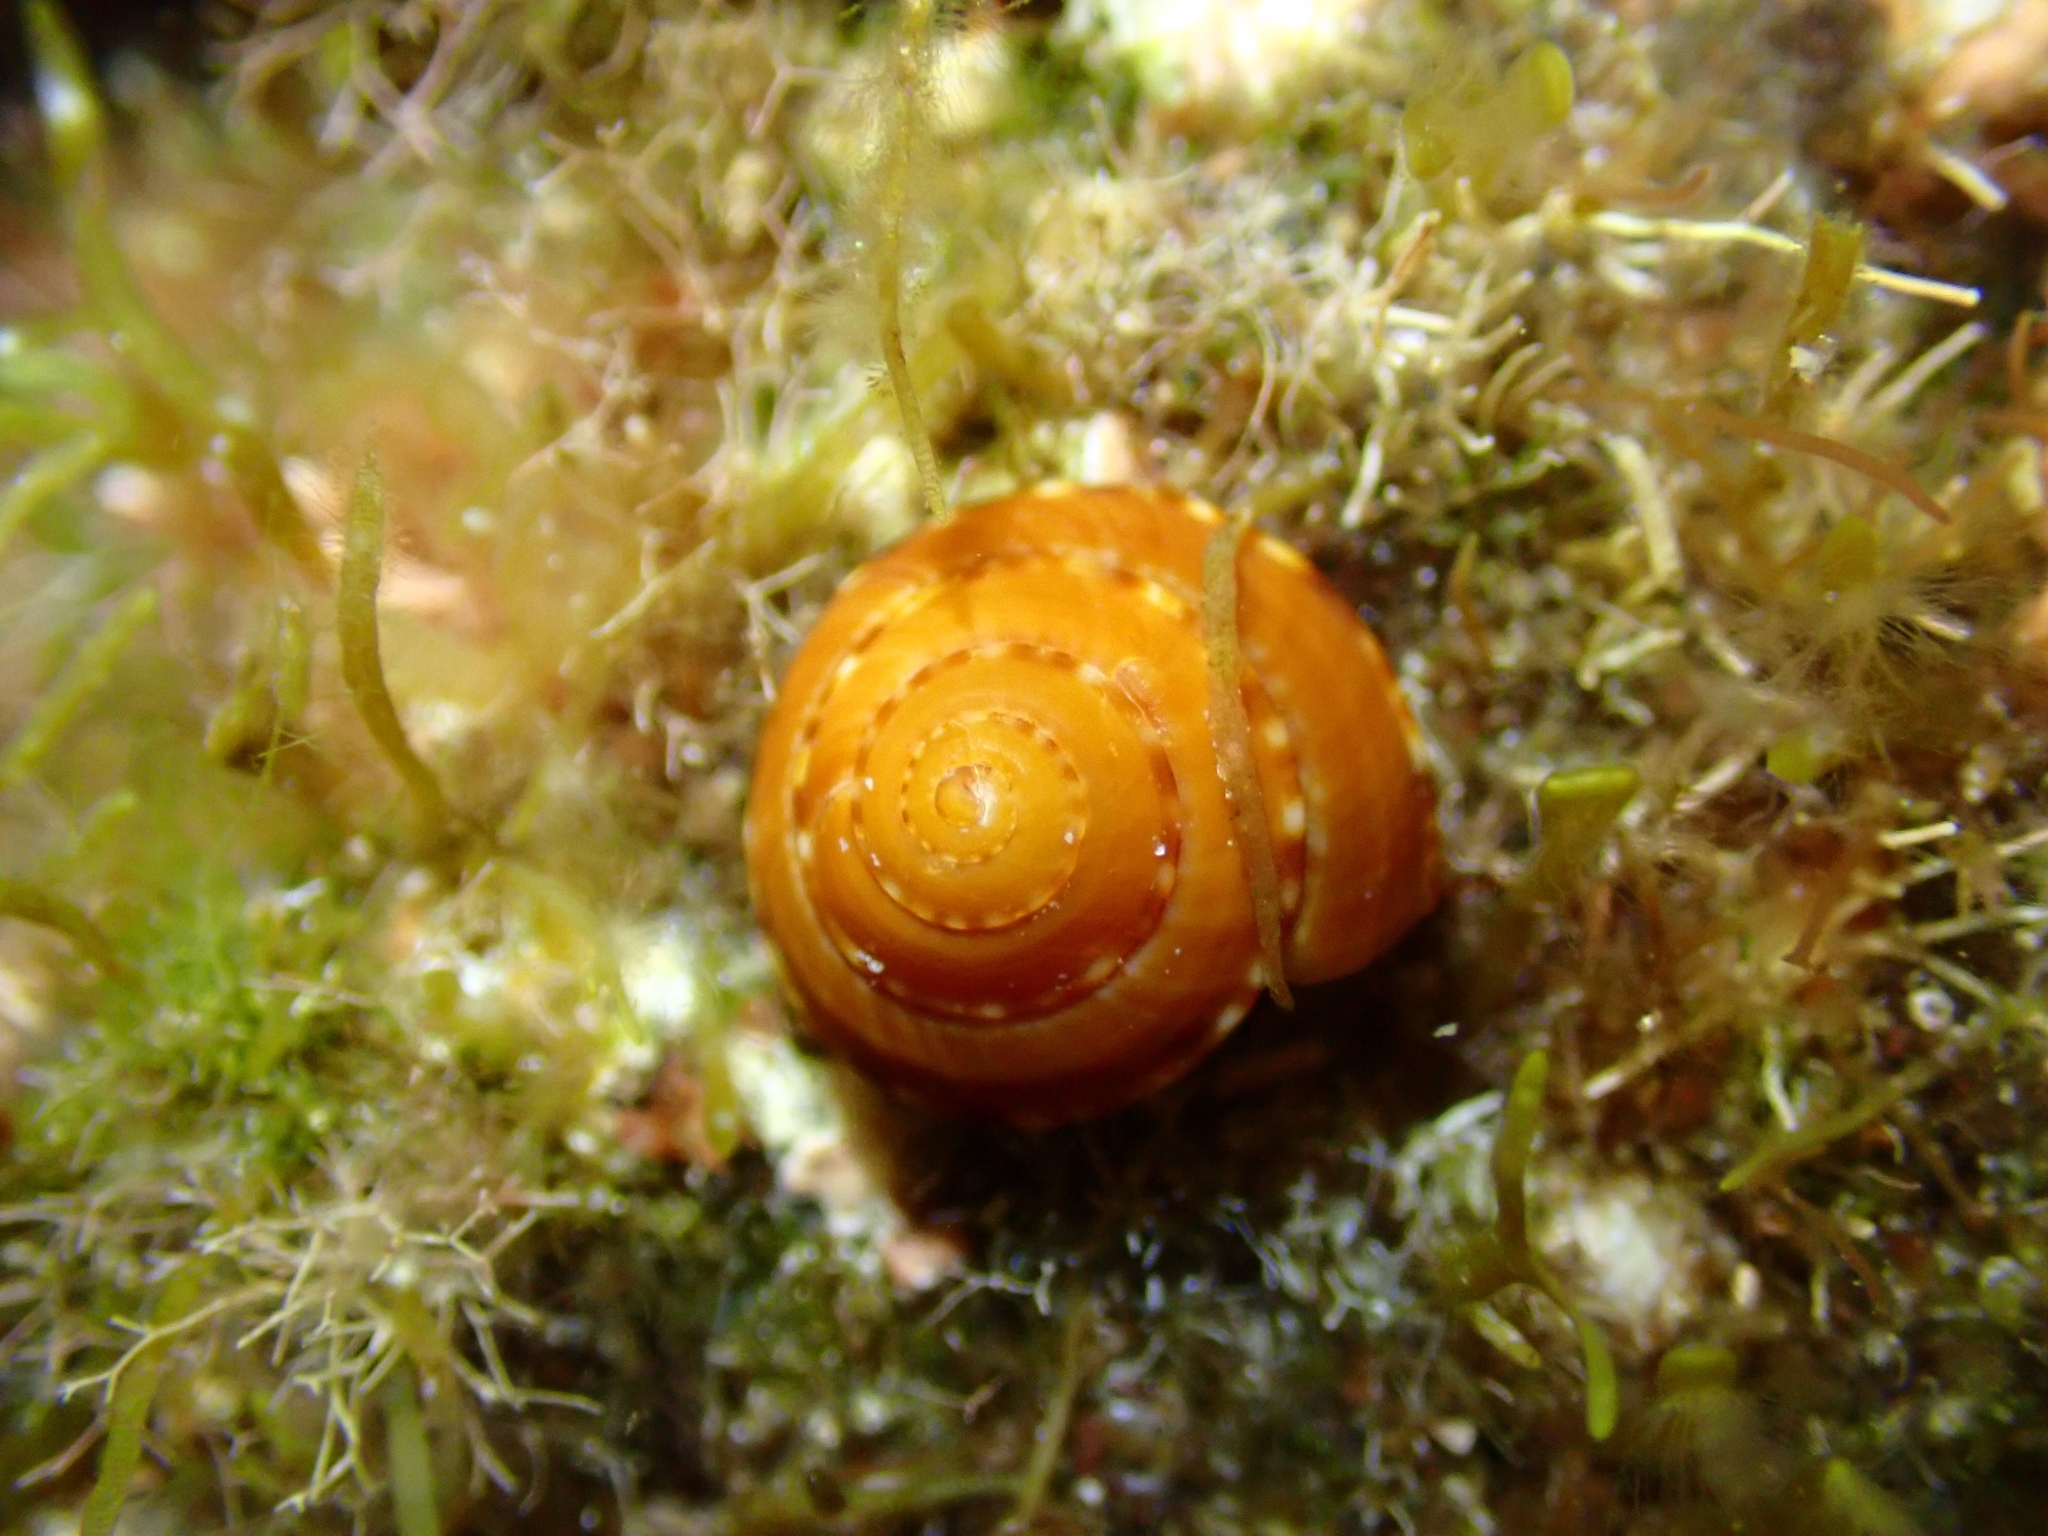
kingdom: Animalia
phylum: Mollusca
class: Gastropoda
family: Architectonicidae
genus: Philippia
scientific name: Philippia hybrida
